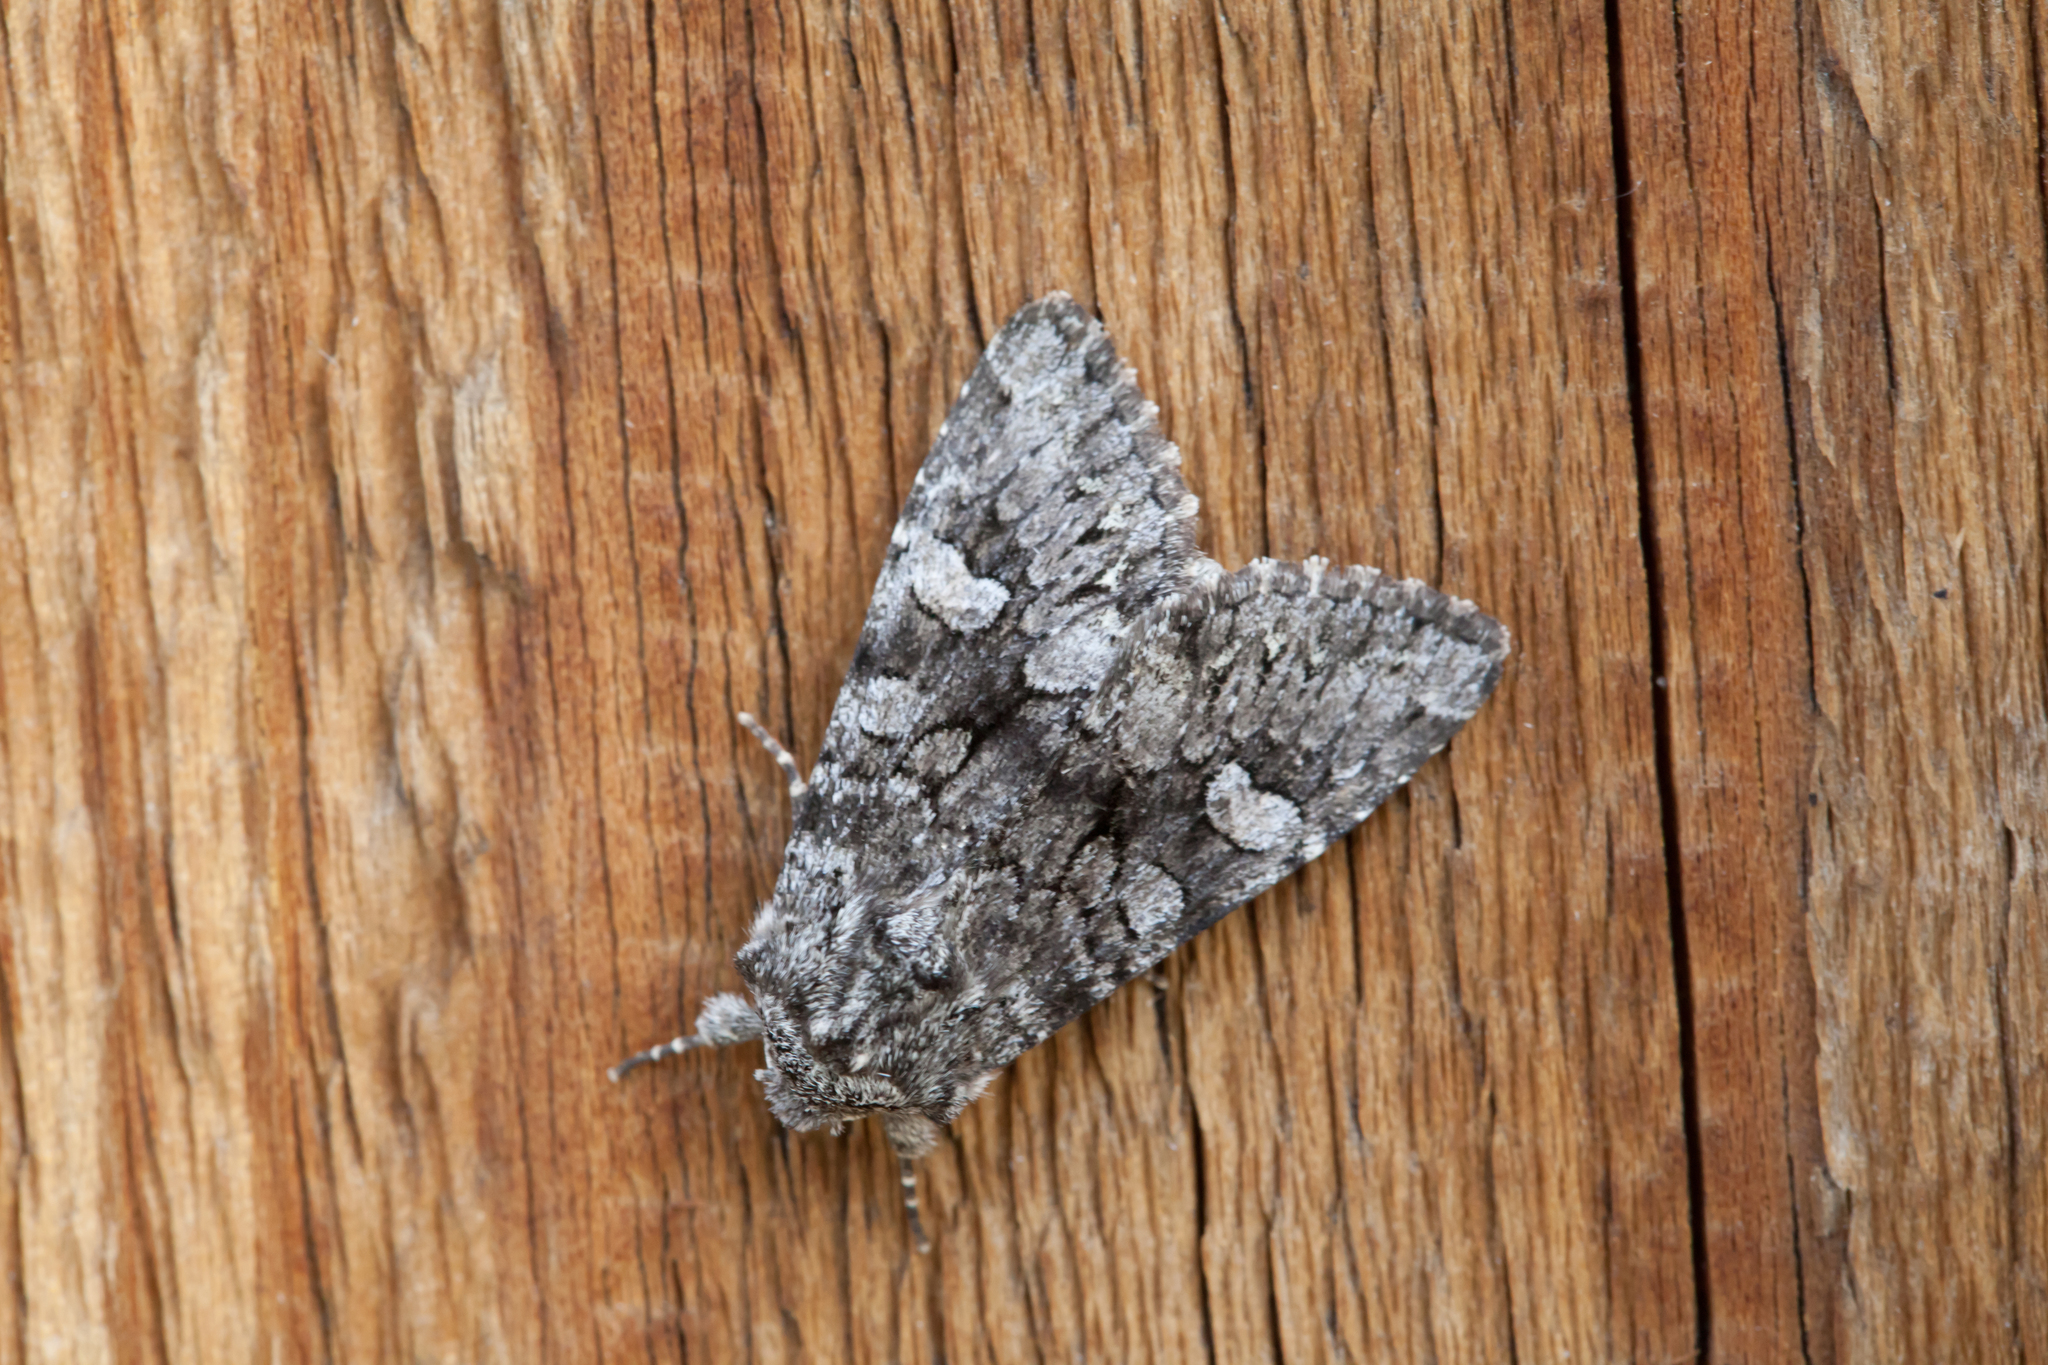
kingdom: Animalia
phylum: Arthropoda
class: Insecta
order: Lepidoptera
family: Noctuidae
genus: Papestra
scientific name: Papestra biren
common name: Glaucous shears
